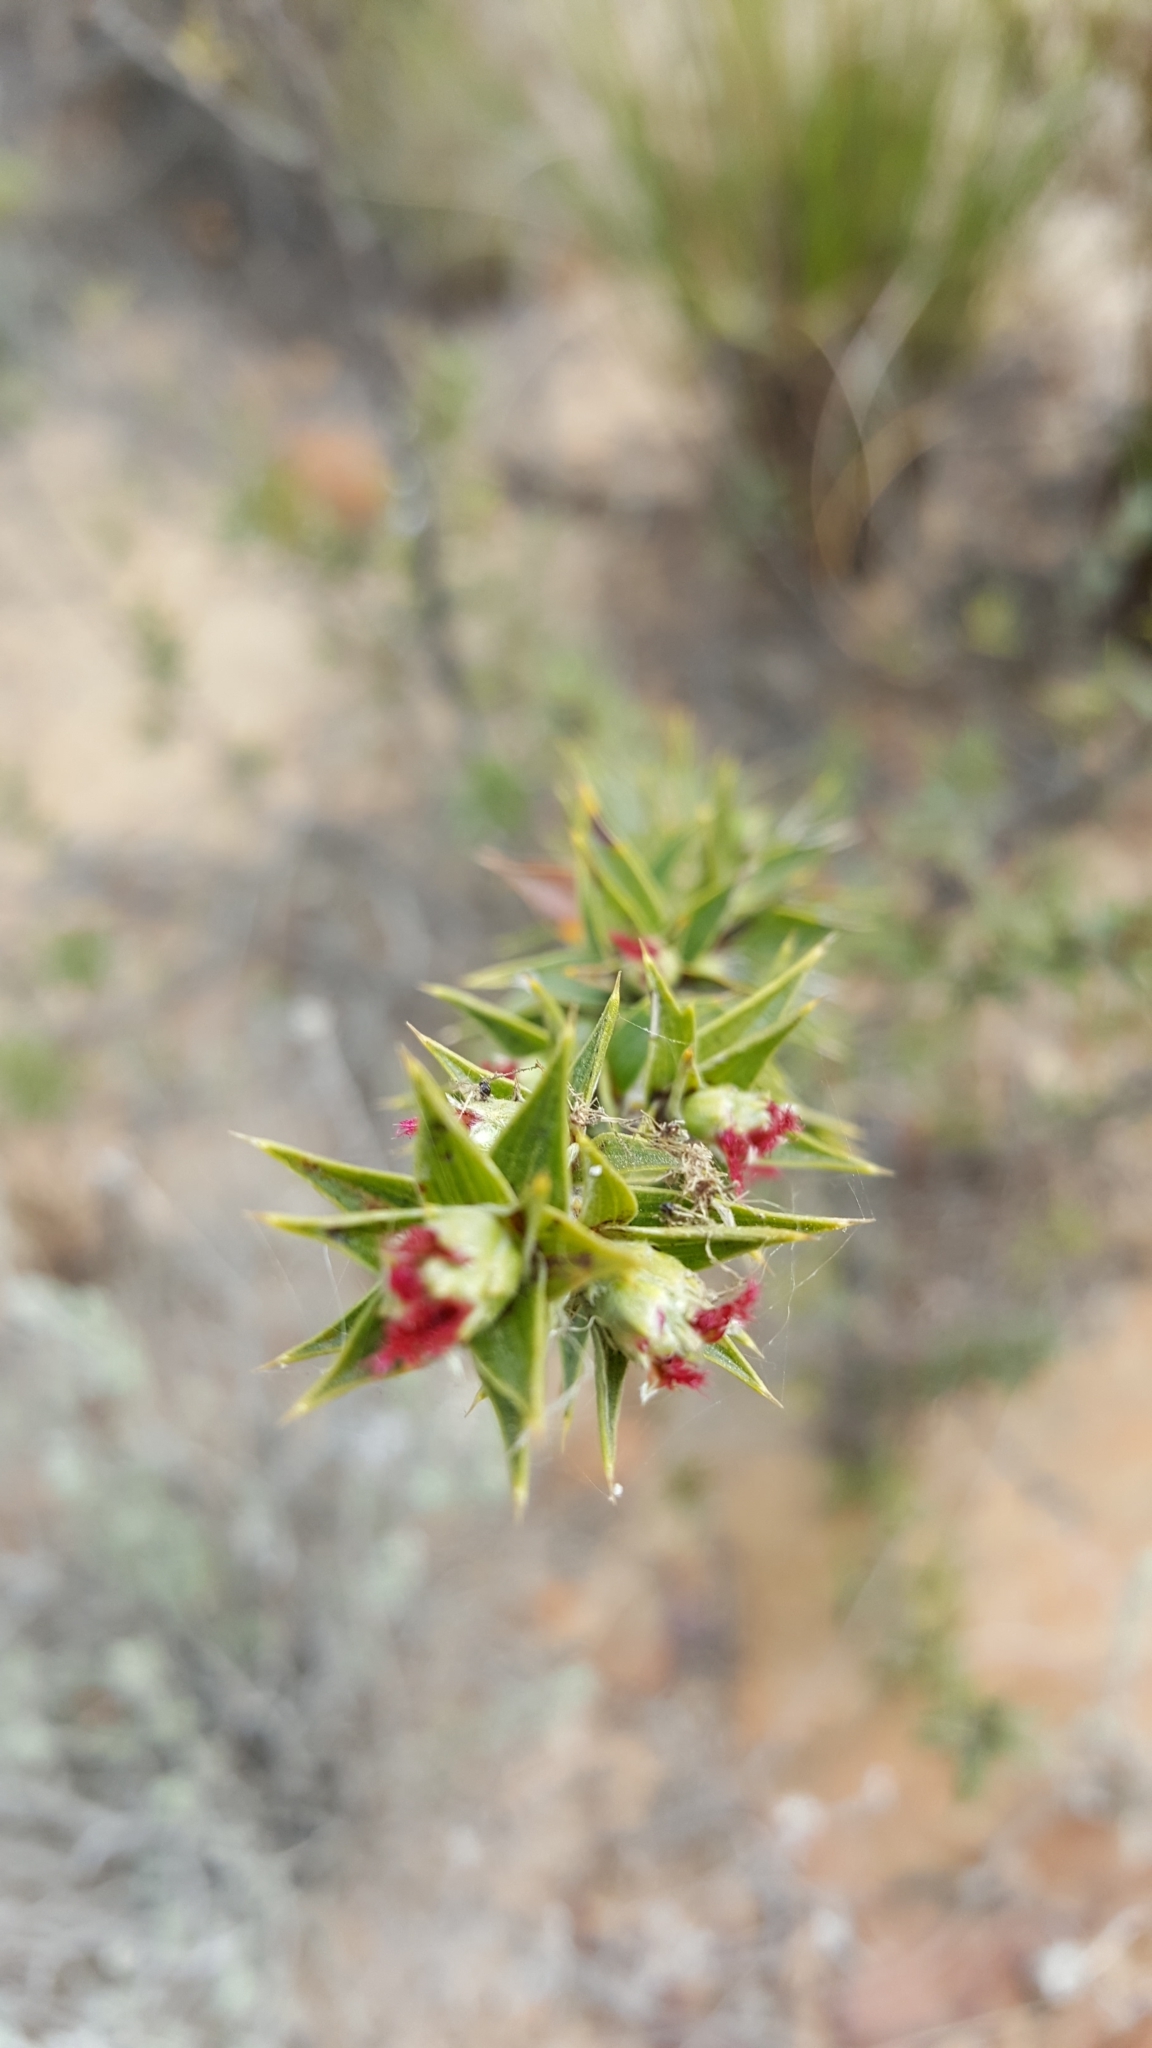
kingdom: Plantae
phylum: Tracheophyta
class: Magnoliopsida
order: Rosales
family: Rosaceae
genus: Cliffortia
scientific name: Cliffortia ruscifolia
